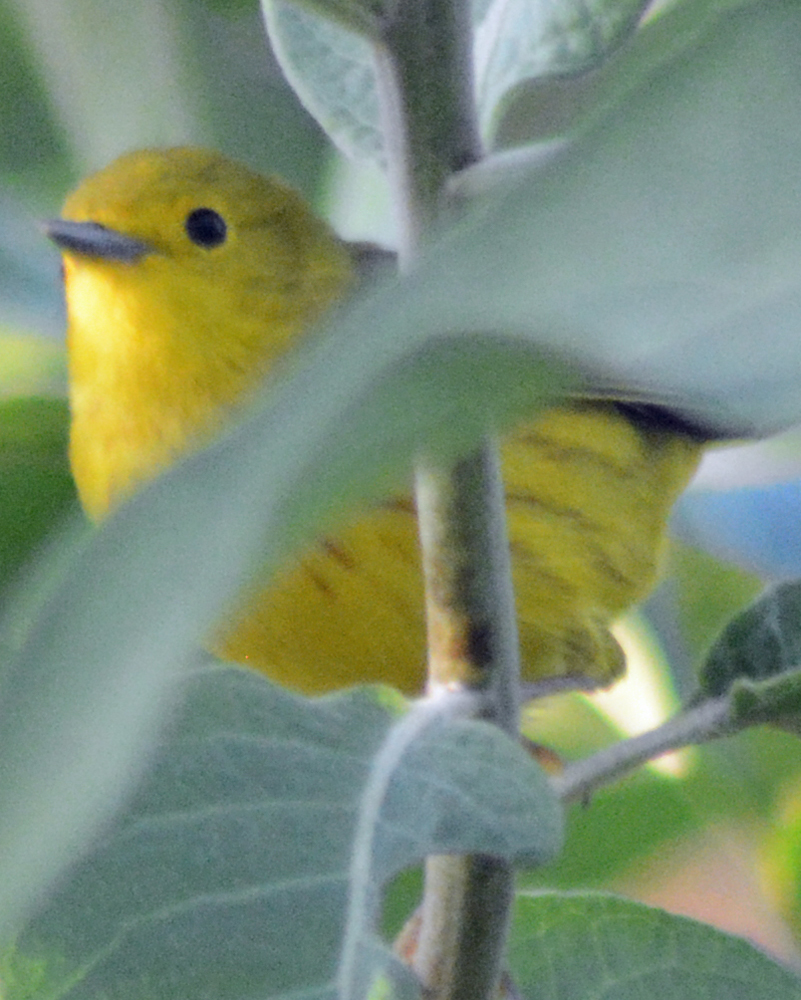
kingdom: Animalia
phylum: Chordata
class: Aves
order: Passeriformes
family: Parulidae
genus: Setophaga
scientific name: Setophaga petechia
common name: Yellow warbler
